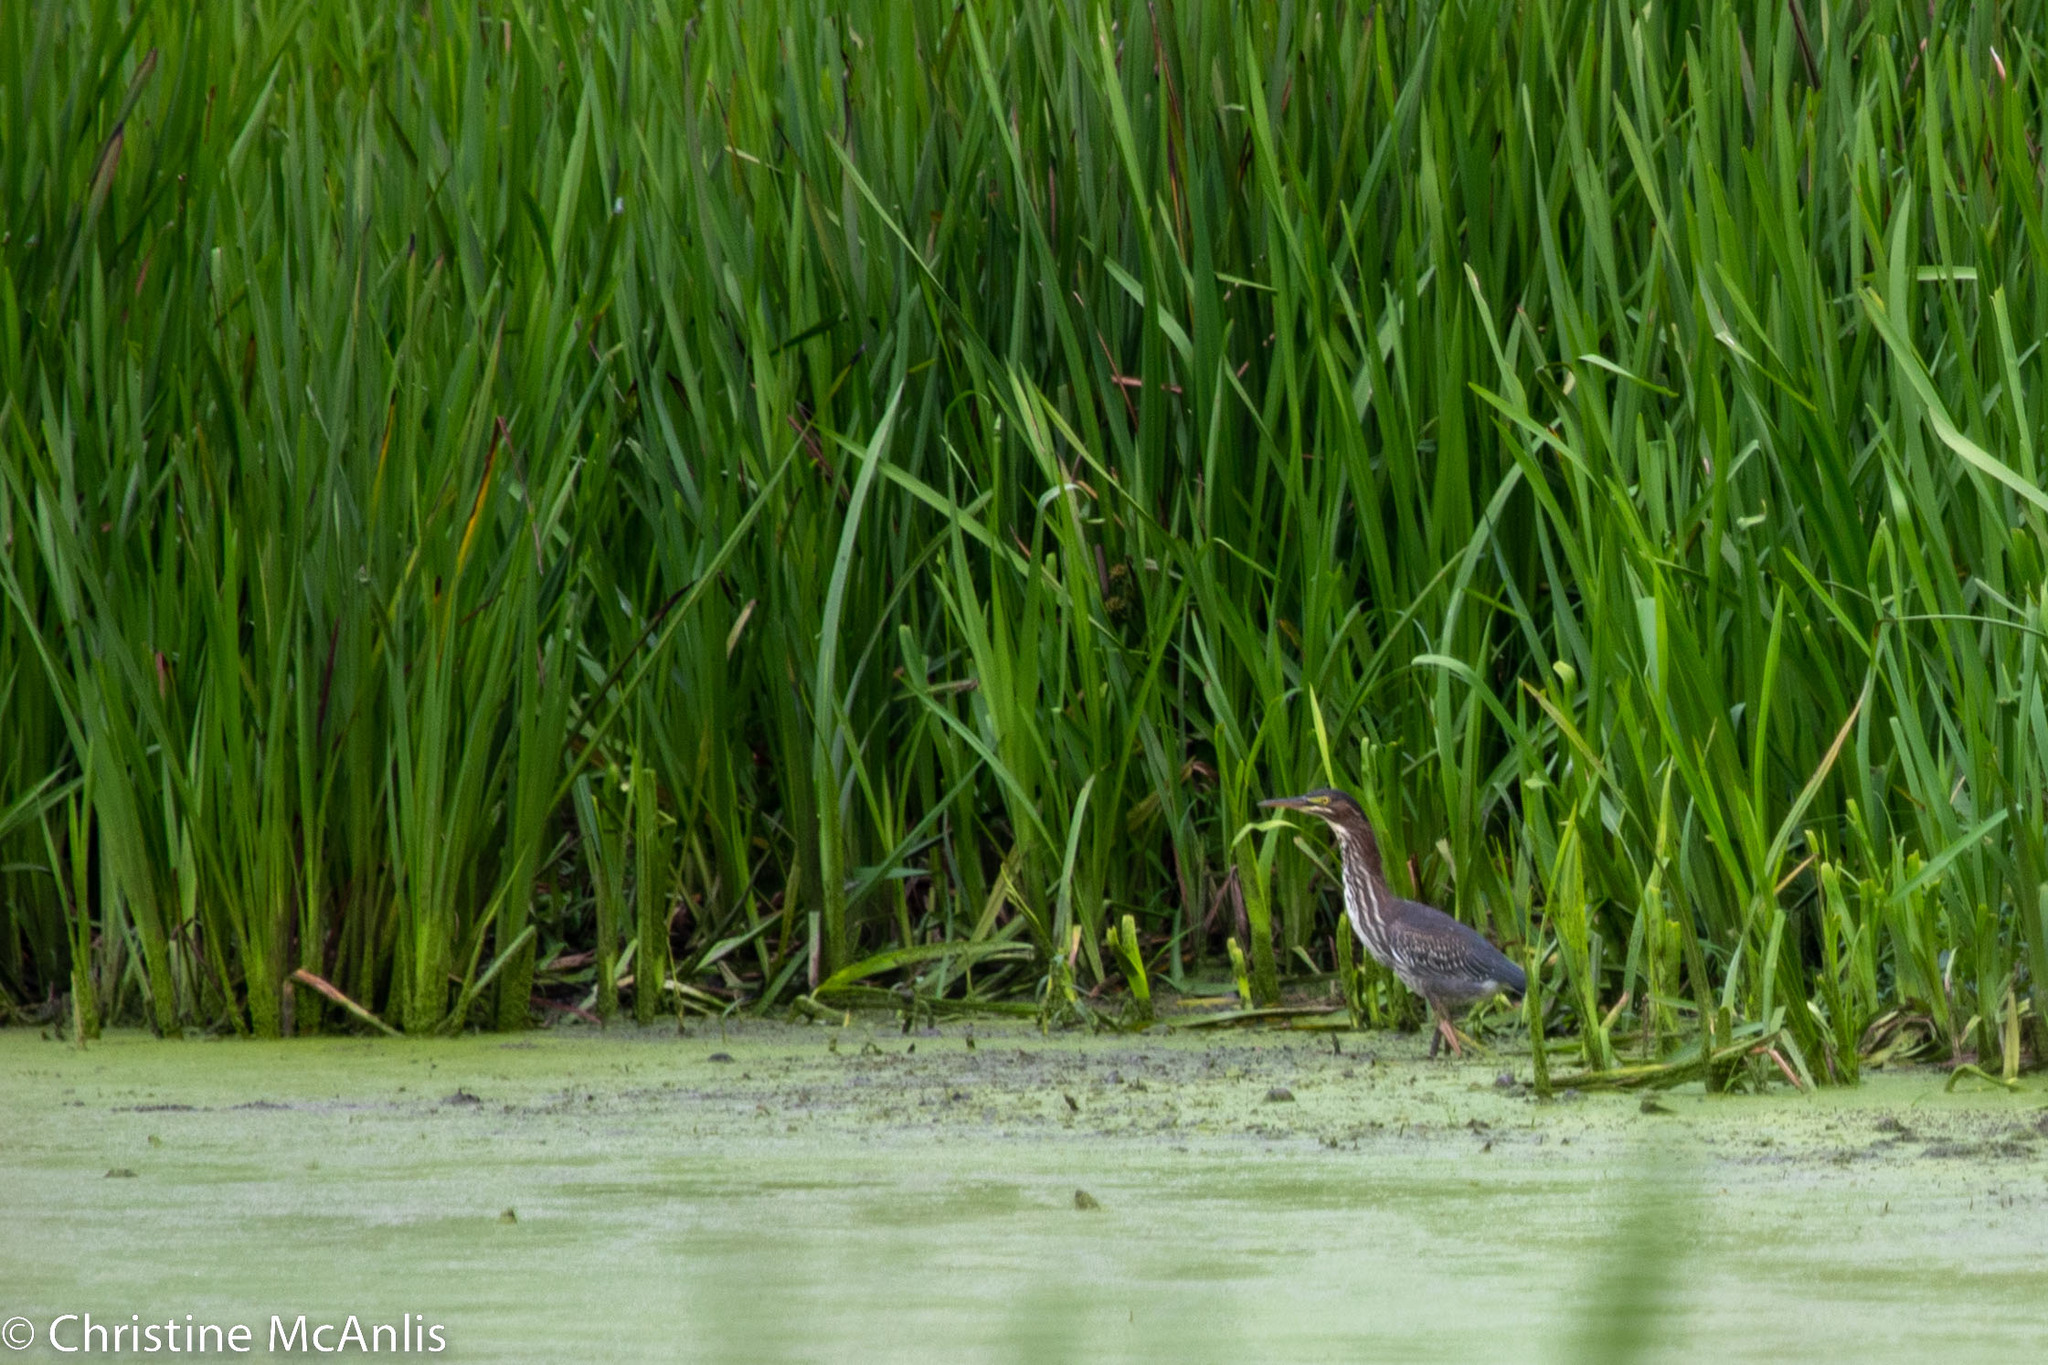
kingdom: Animalia
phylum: Chordata
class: Aves
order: Pelecaniformes
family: Ardeidae
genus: Butorides
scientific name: Butorides virescens
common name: Green heron
